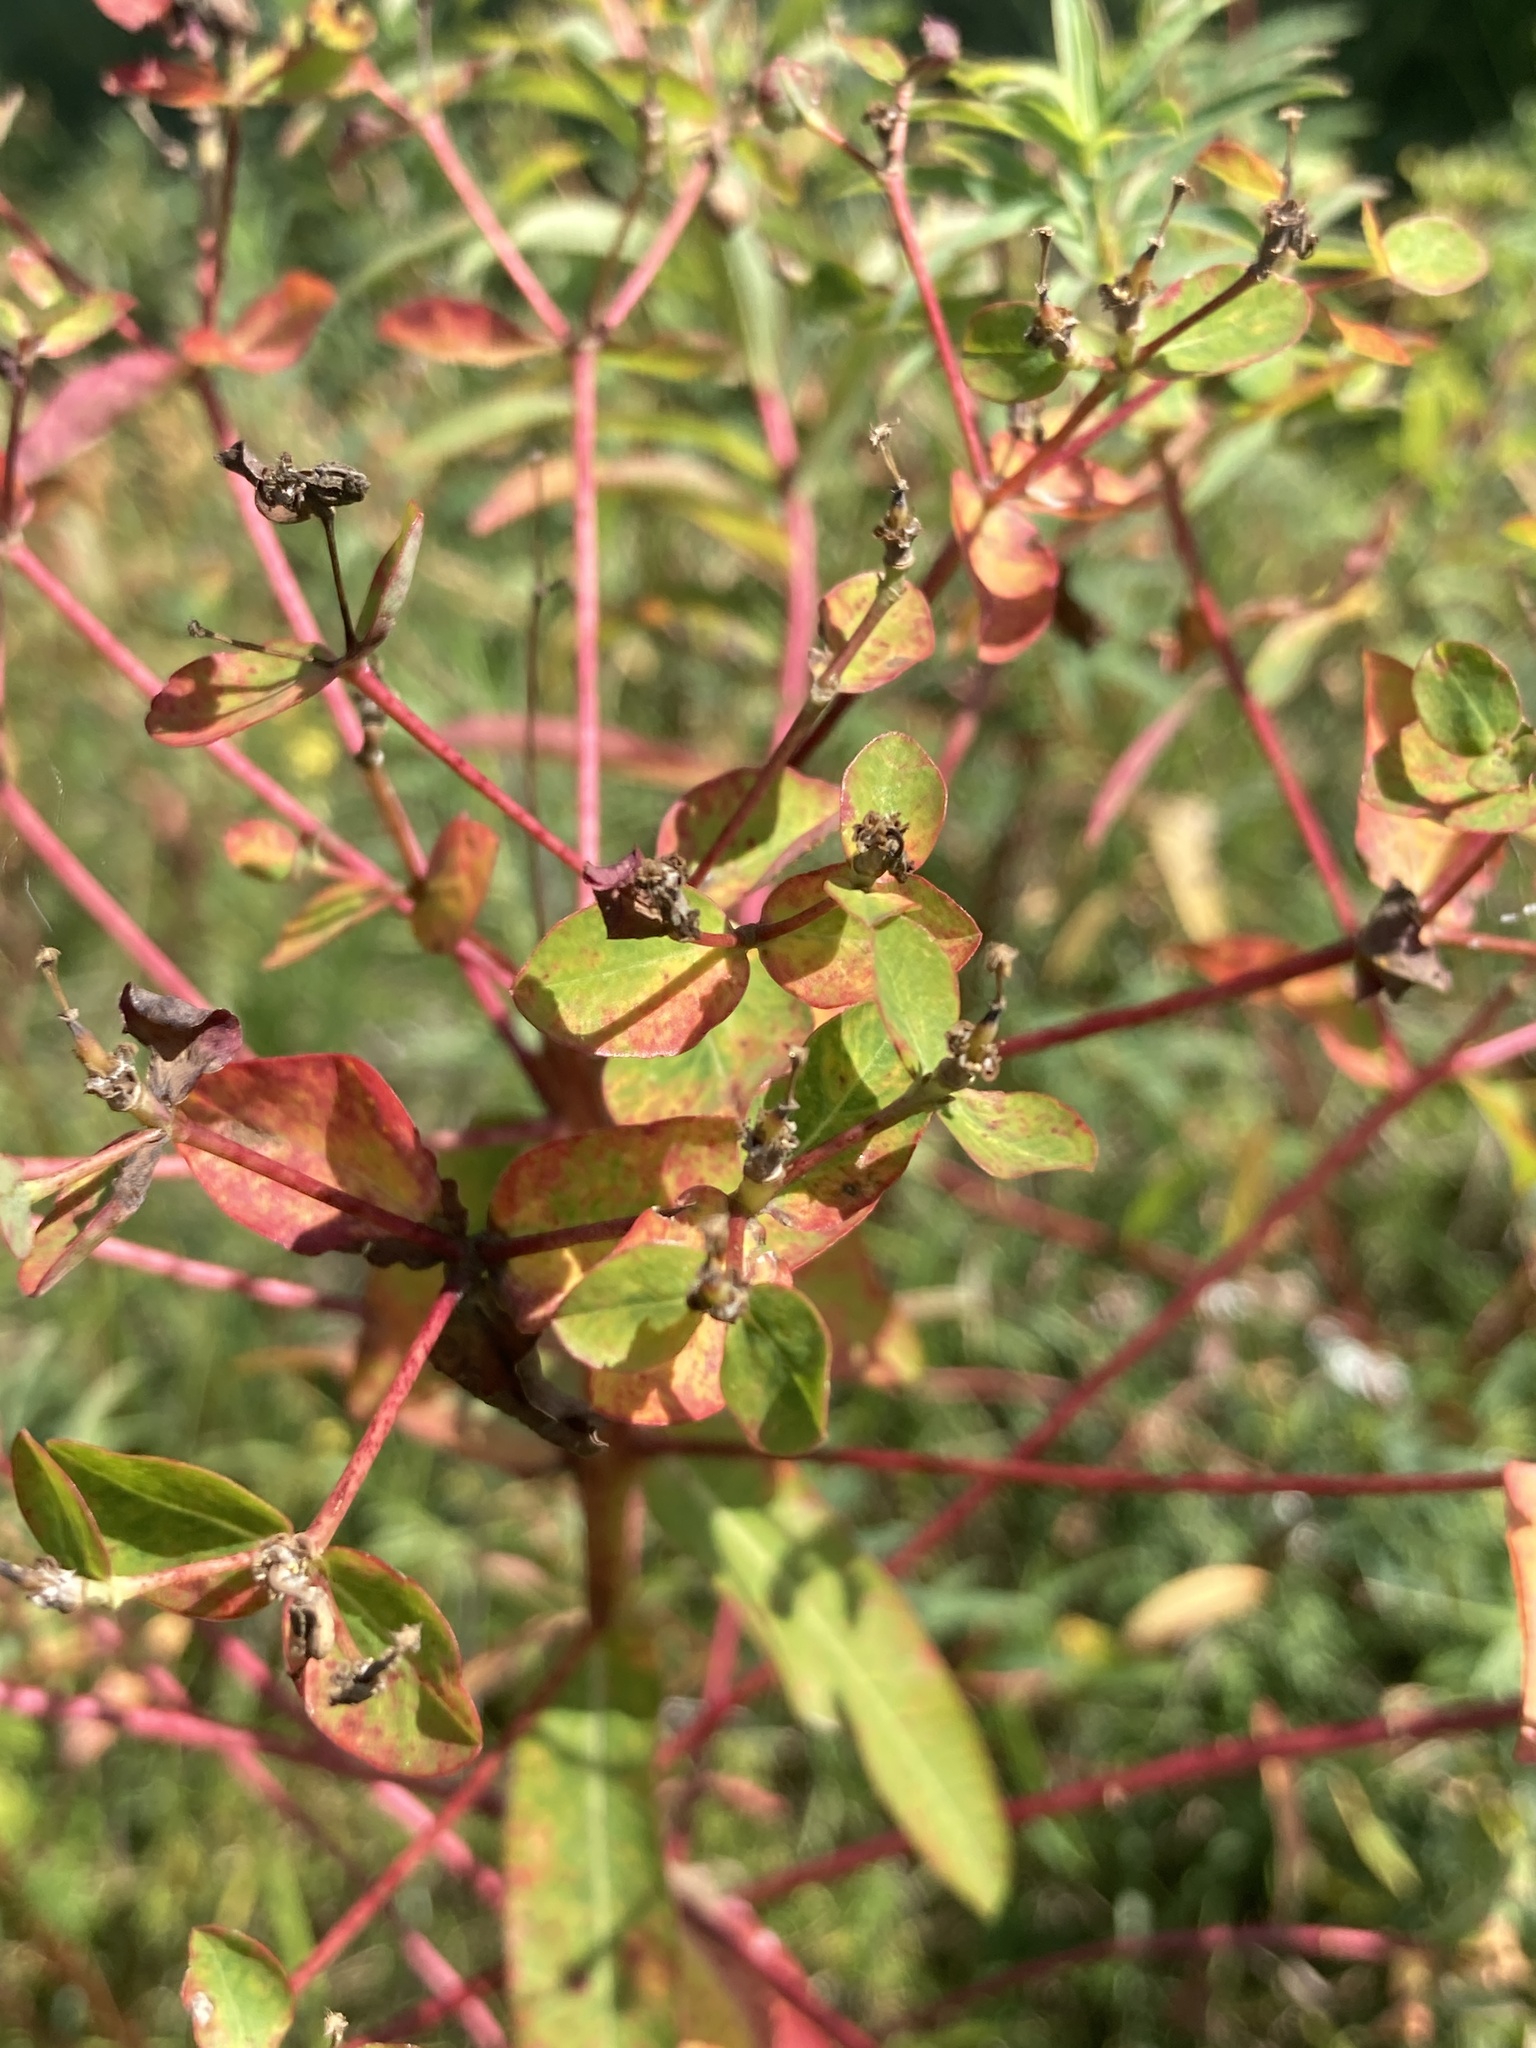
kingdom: Plantae
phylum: Tracheophyta
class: Magnoliopsida
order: Malpighiales
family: Euphorbiaceae
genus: Euphorbia
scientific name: Euphorbia semivillosa
